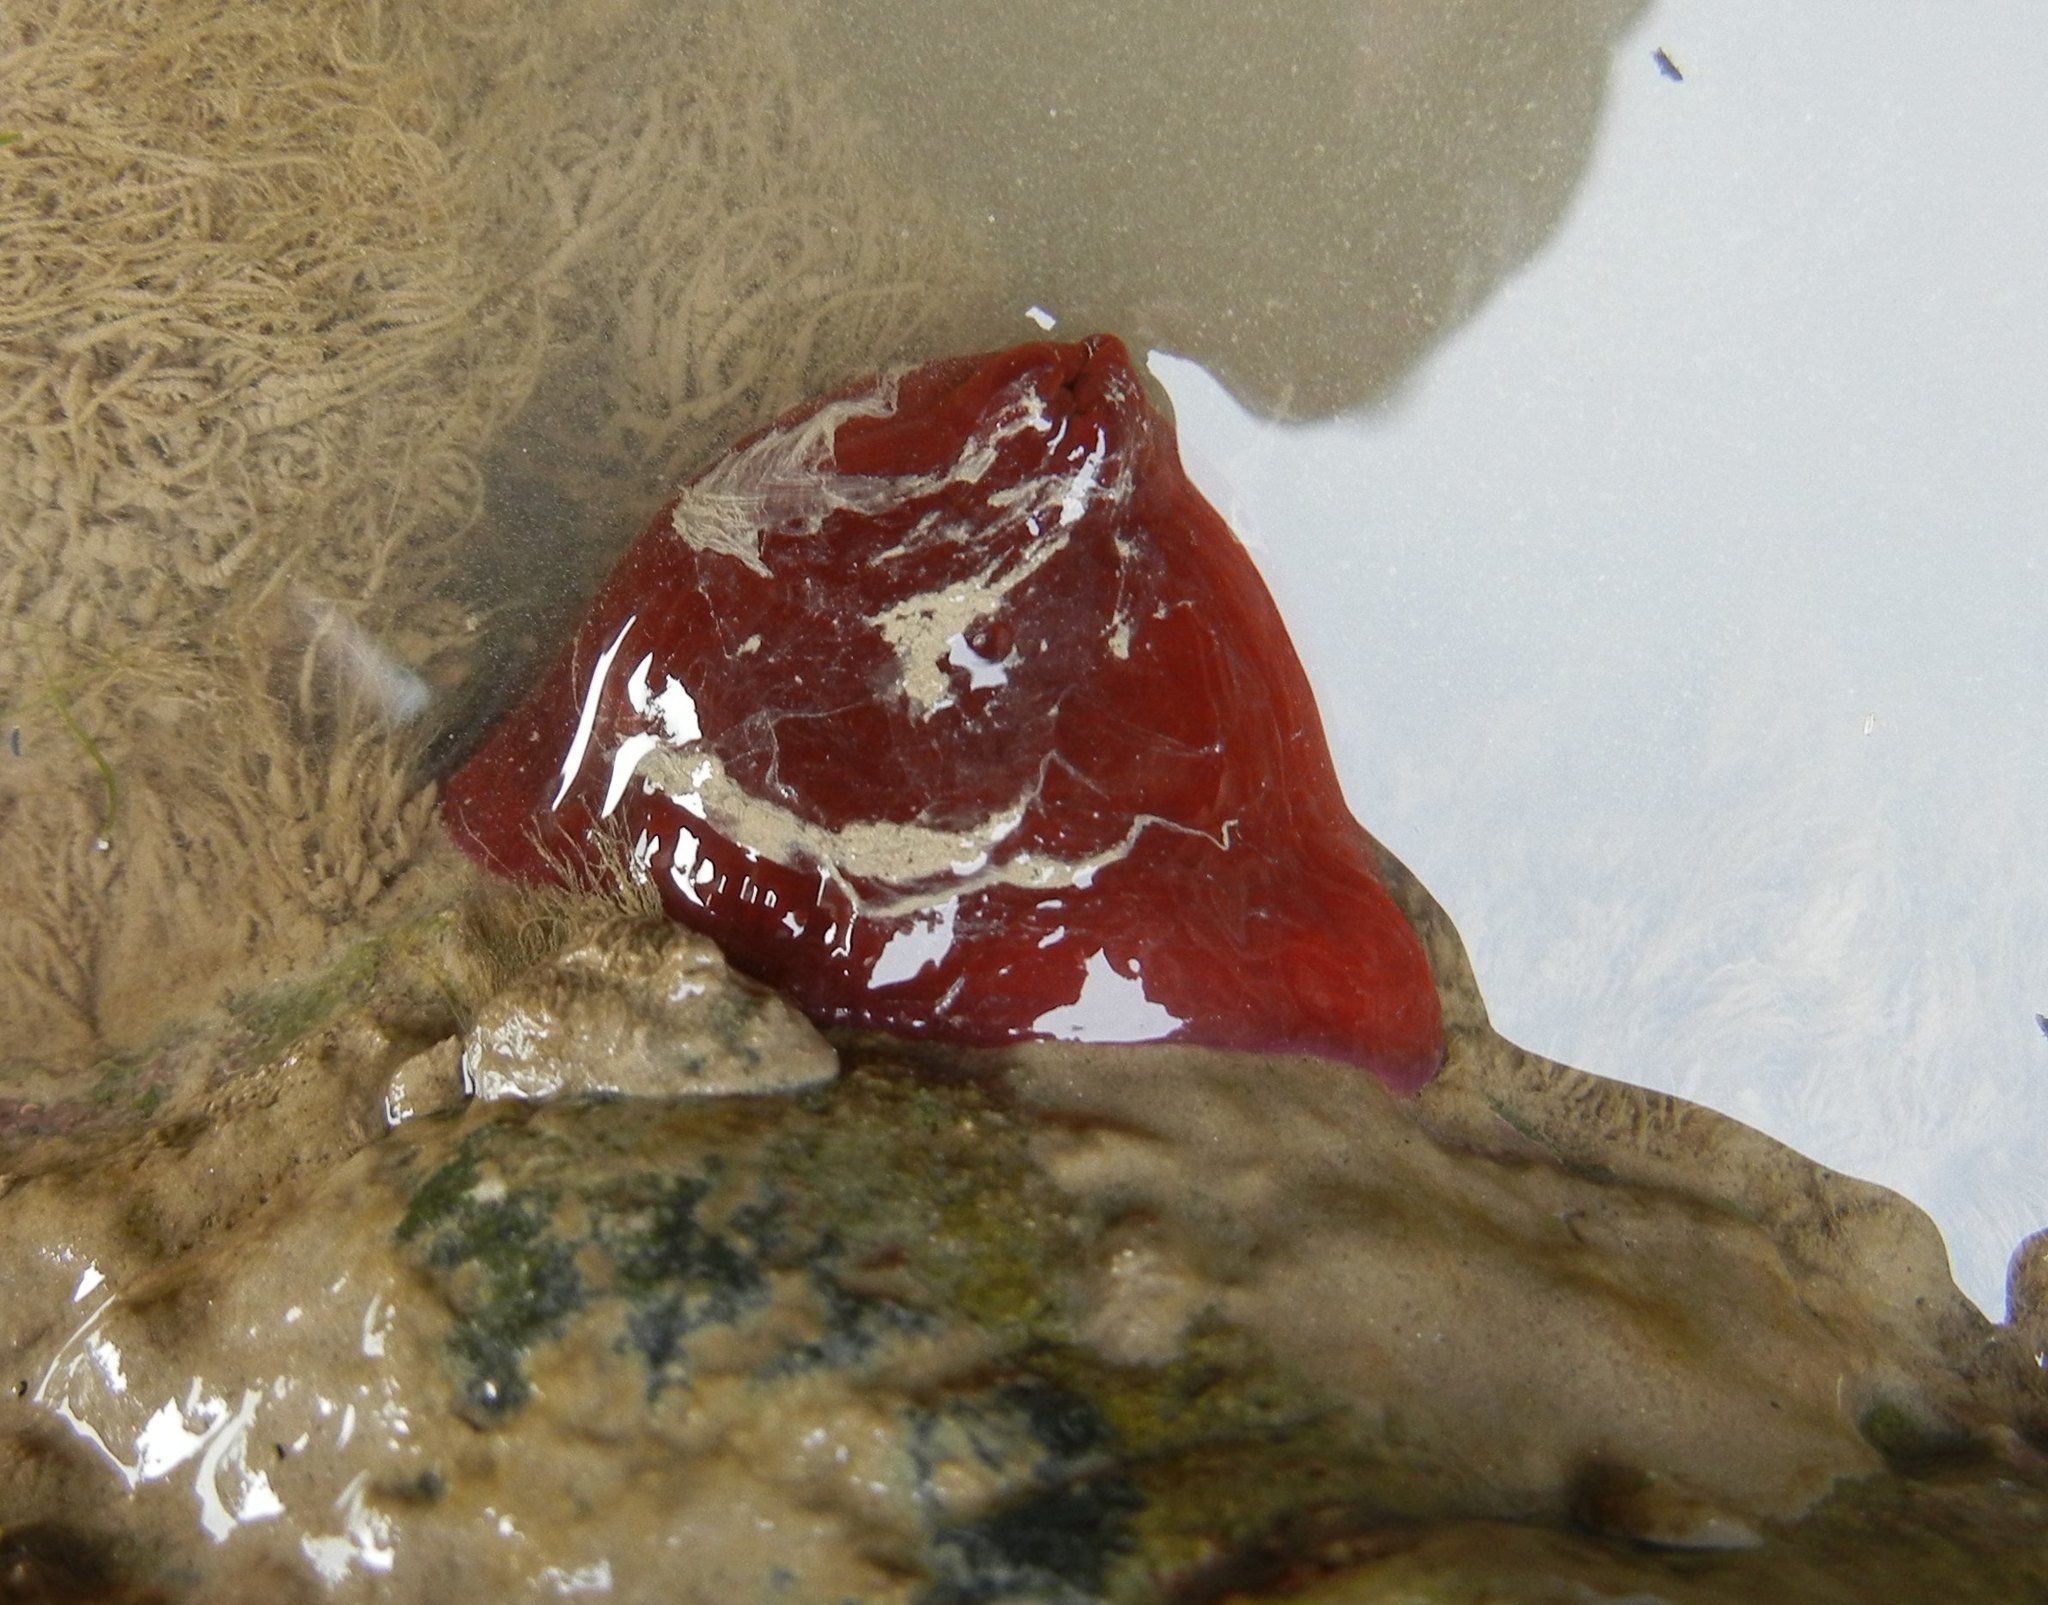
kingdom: Animalia
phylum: Cnidaria
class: Anthozoa
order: Actiniaria
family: Actiniidae
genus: Actinia
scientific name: Actinia equina
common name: Beadlet anemone
